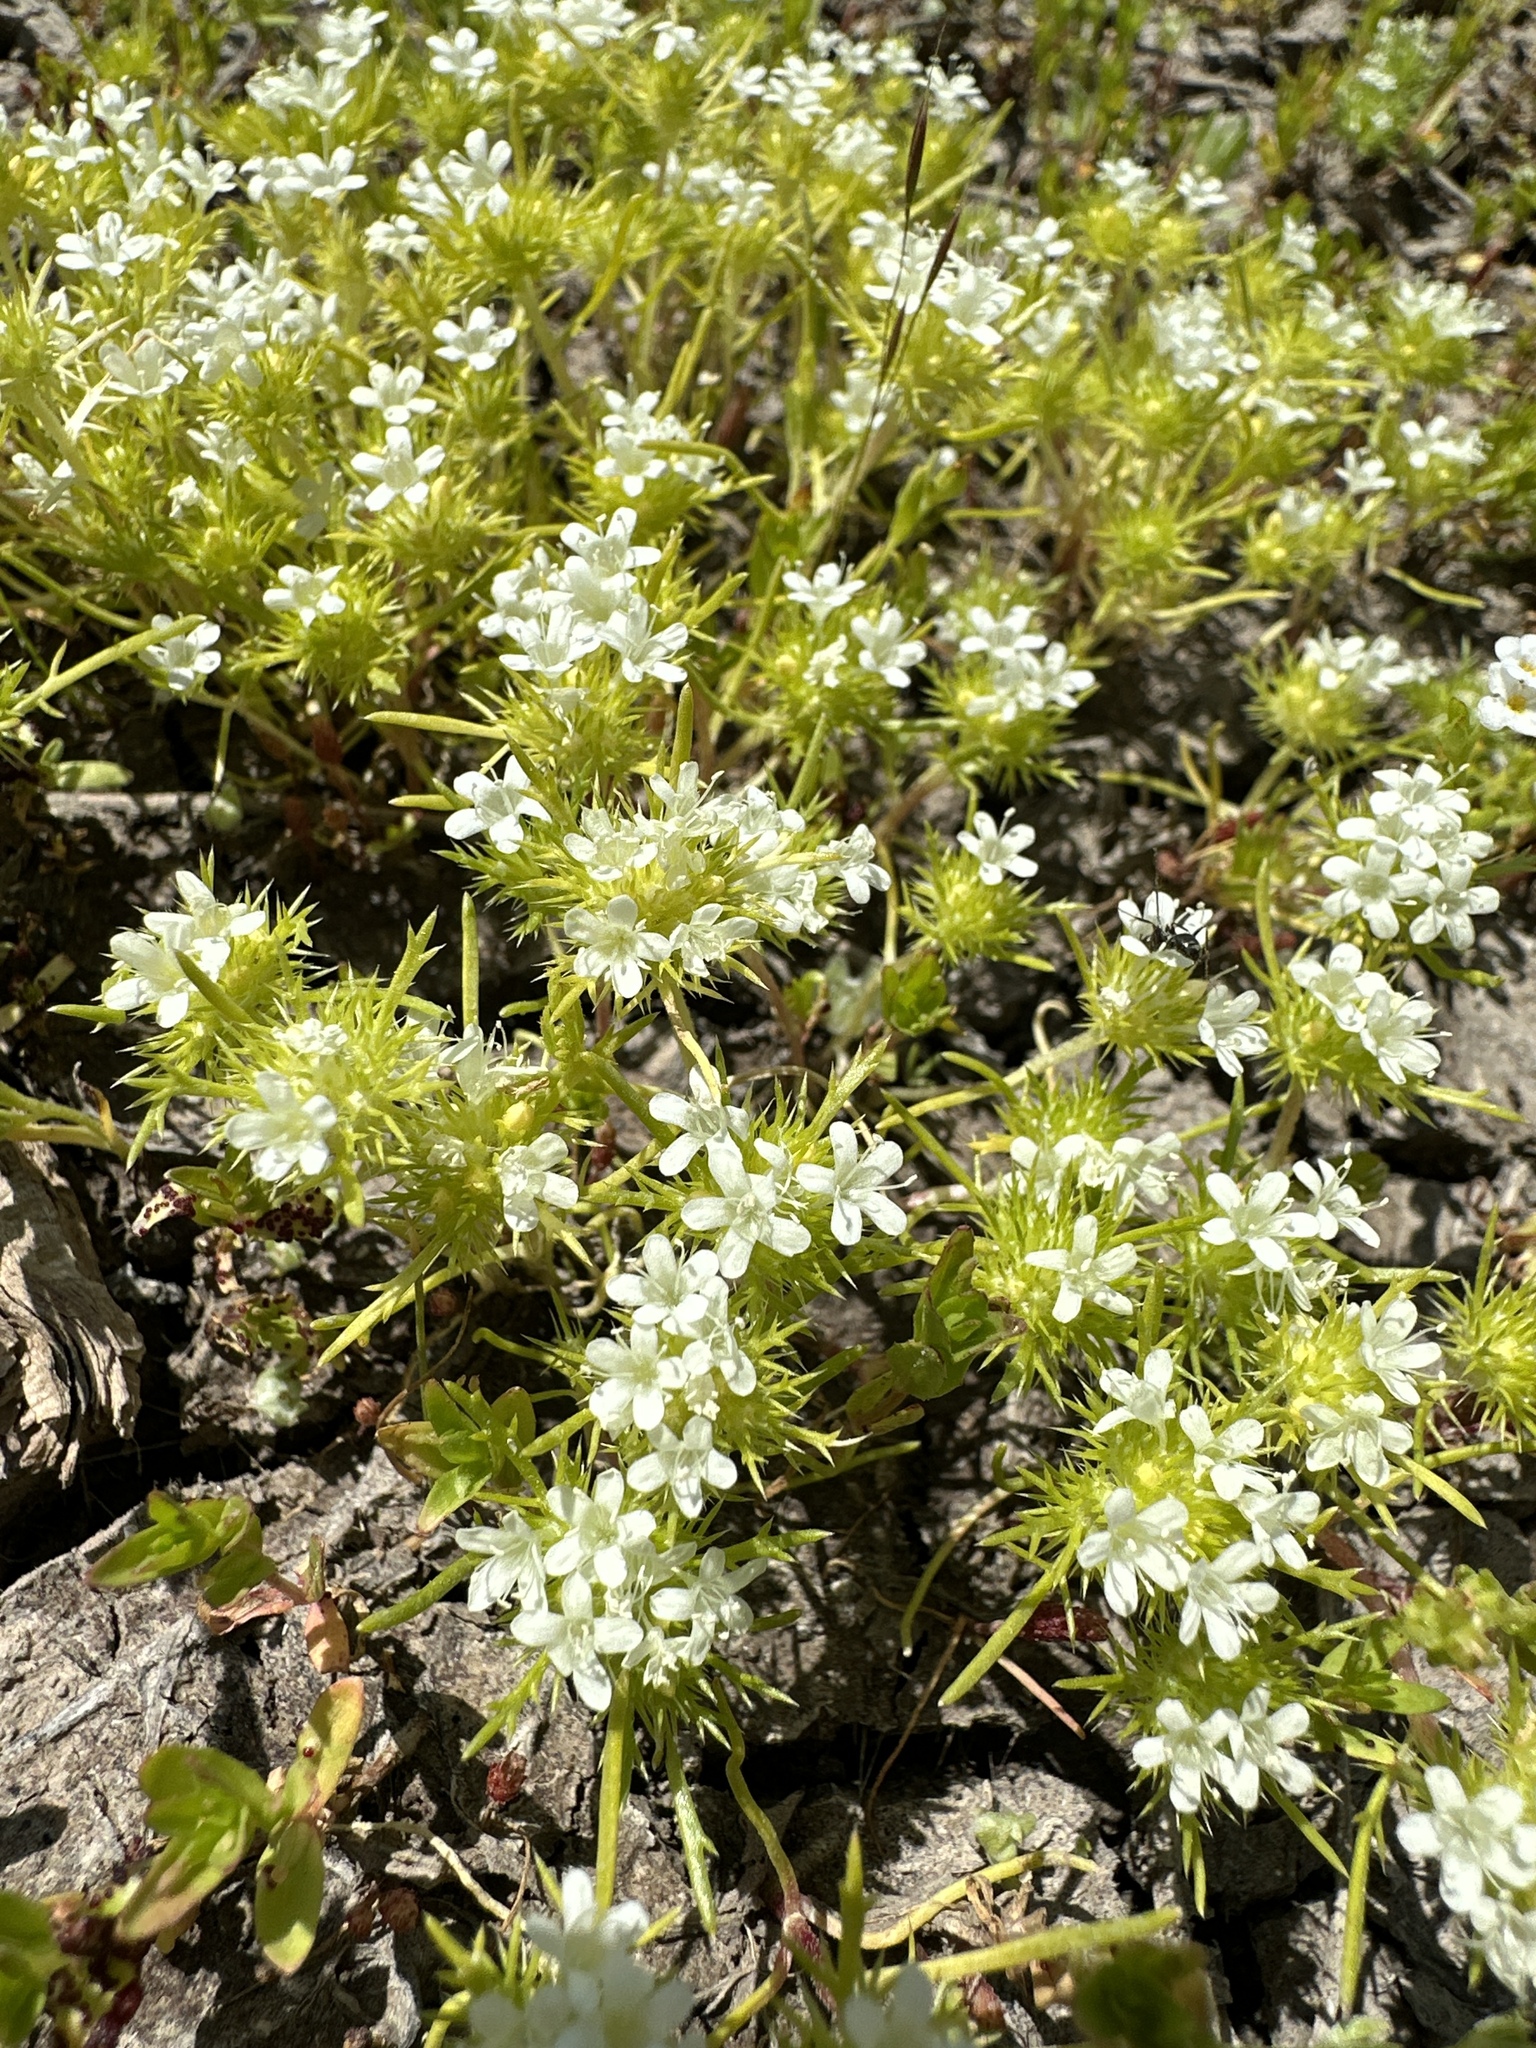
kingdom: Plantae
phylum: Tracheophyta
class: Magnoliopsida
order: Ericales
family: Polemoniaceae
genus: Navarretia
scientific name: Navarretia leucocephala
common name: White-flowered navarretia
